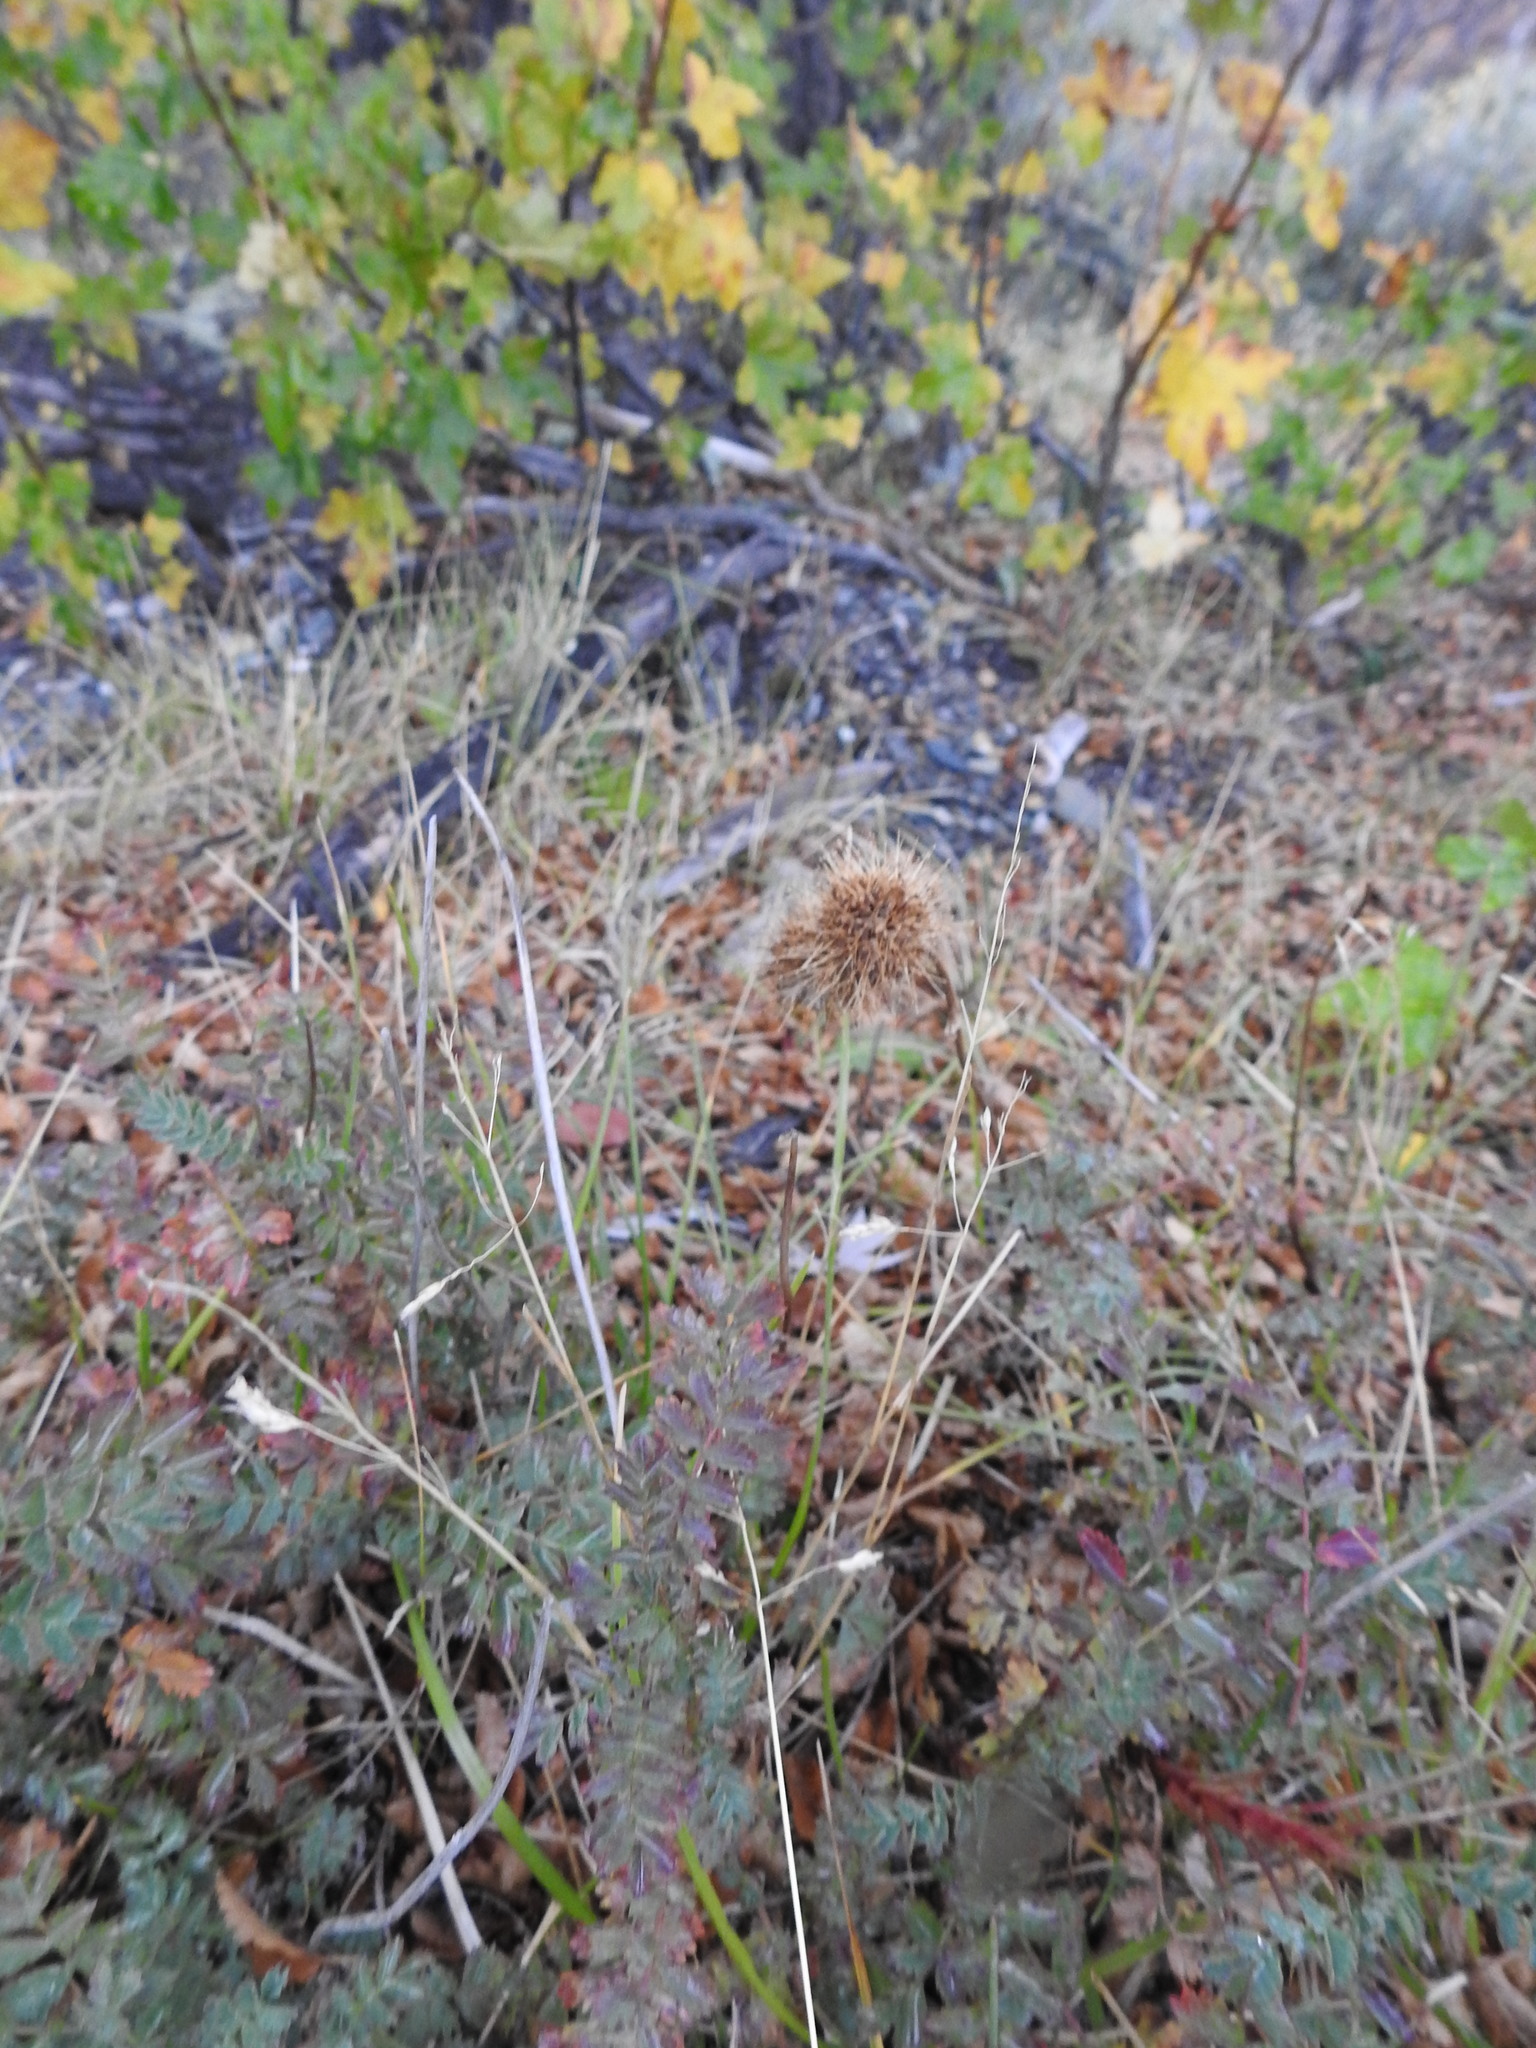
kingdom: Plantae
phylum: Tracheophyta
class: Magnoliopsida
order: Rosales
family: Rosaceae
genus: Acaena
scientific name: Acaena magellanica
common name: New zealand burr
